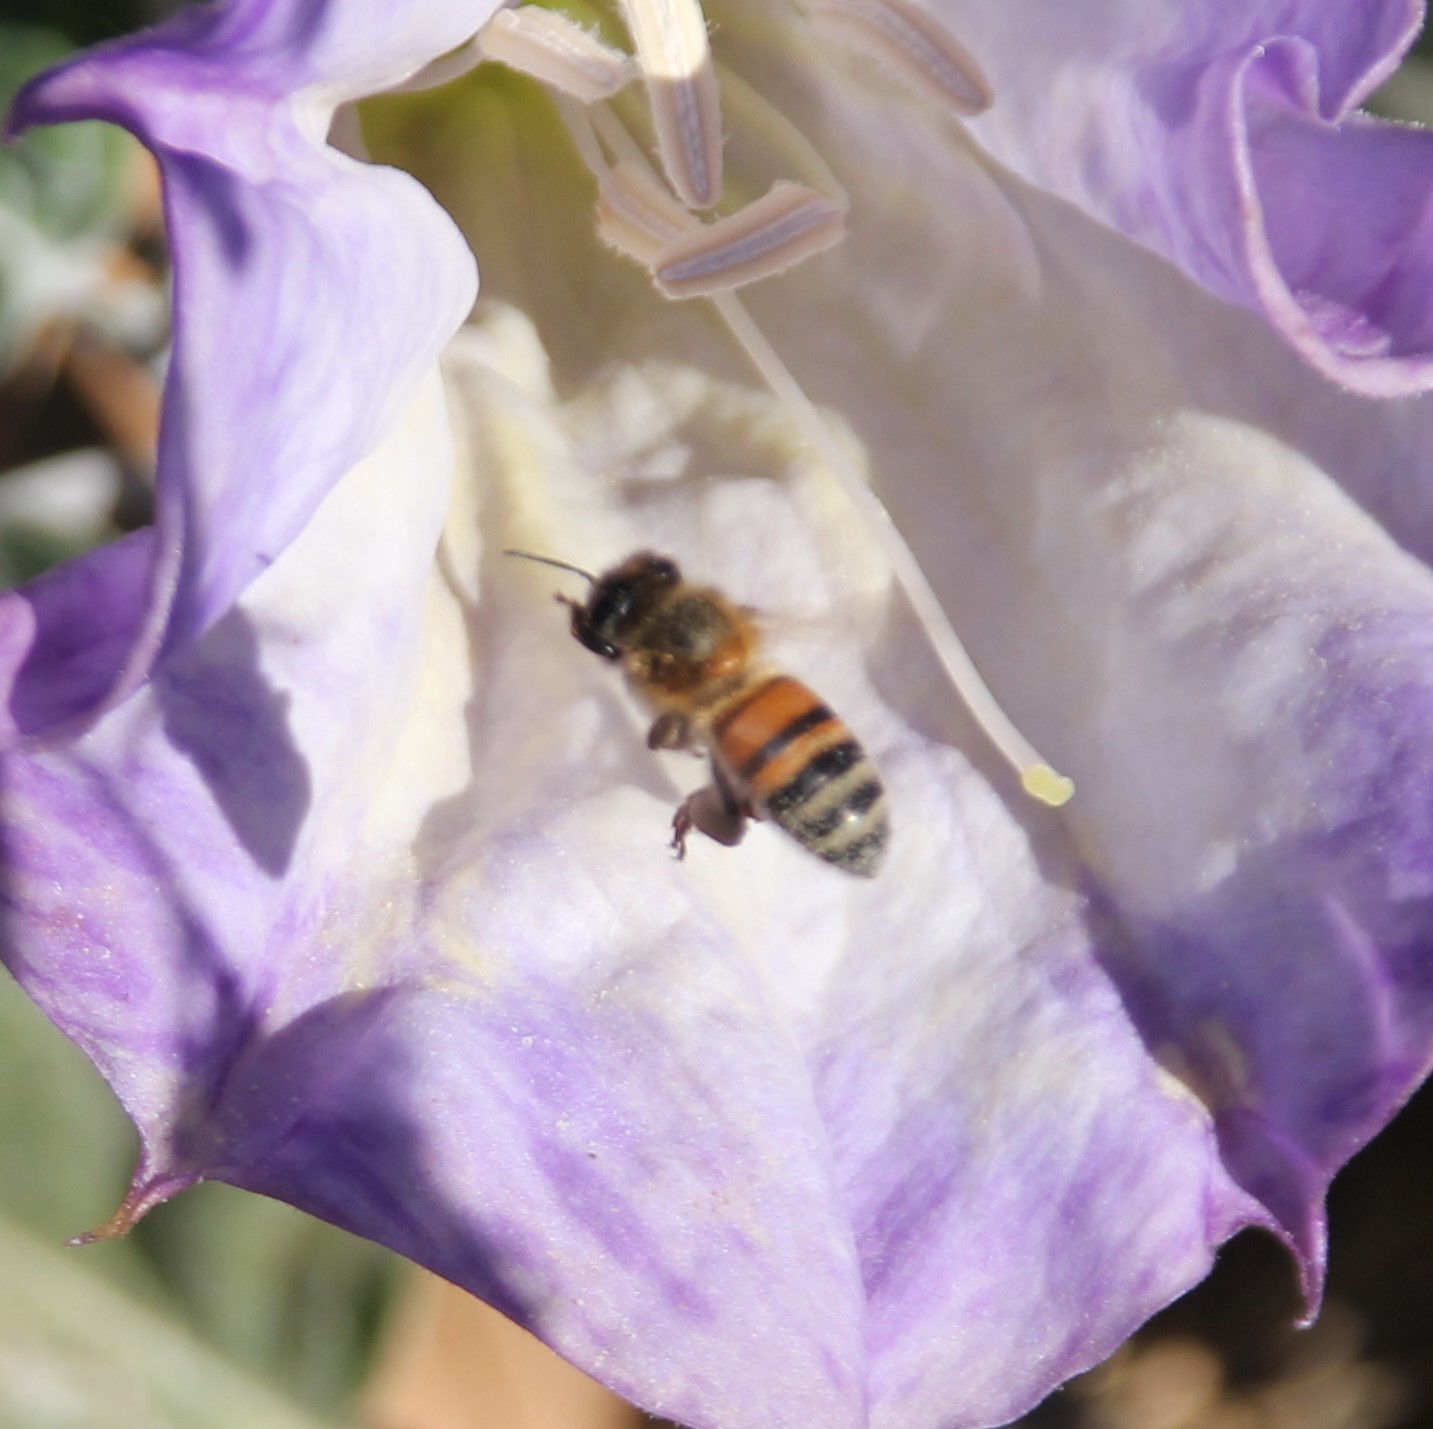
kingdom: Animalia
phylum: Arthropoda
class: Insecta
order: Hymenoptera
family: Apidae
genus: Apis
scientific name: Apis mellifera
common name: Honey bee
